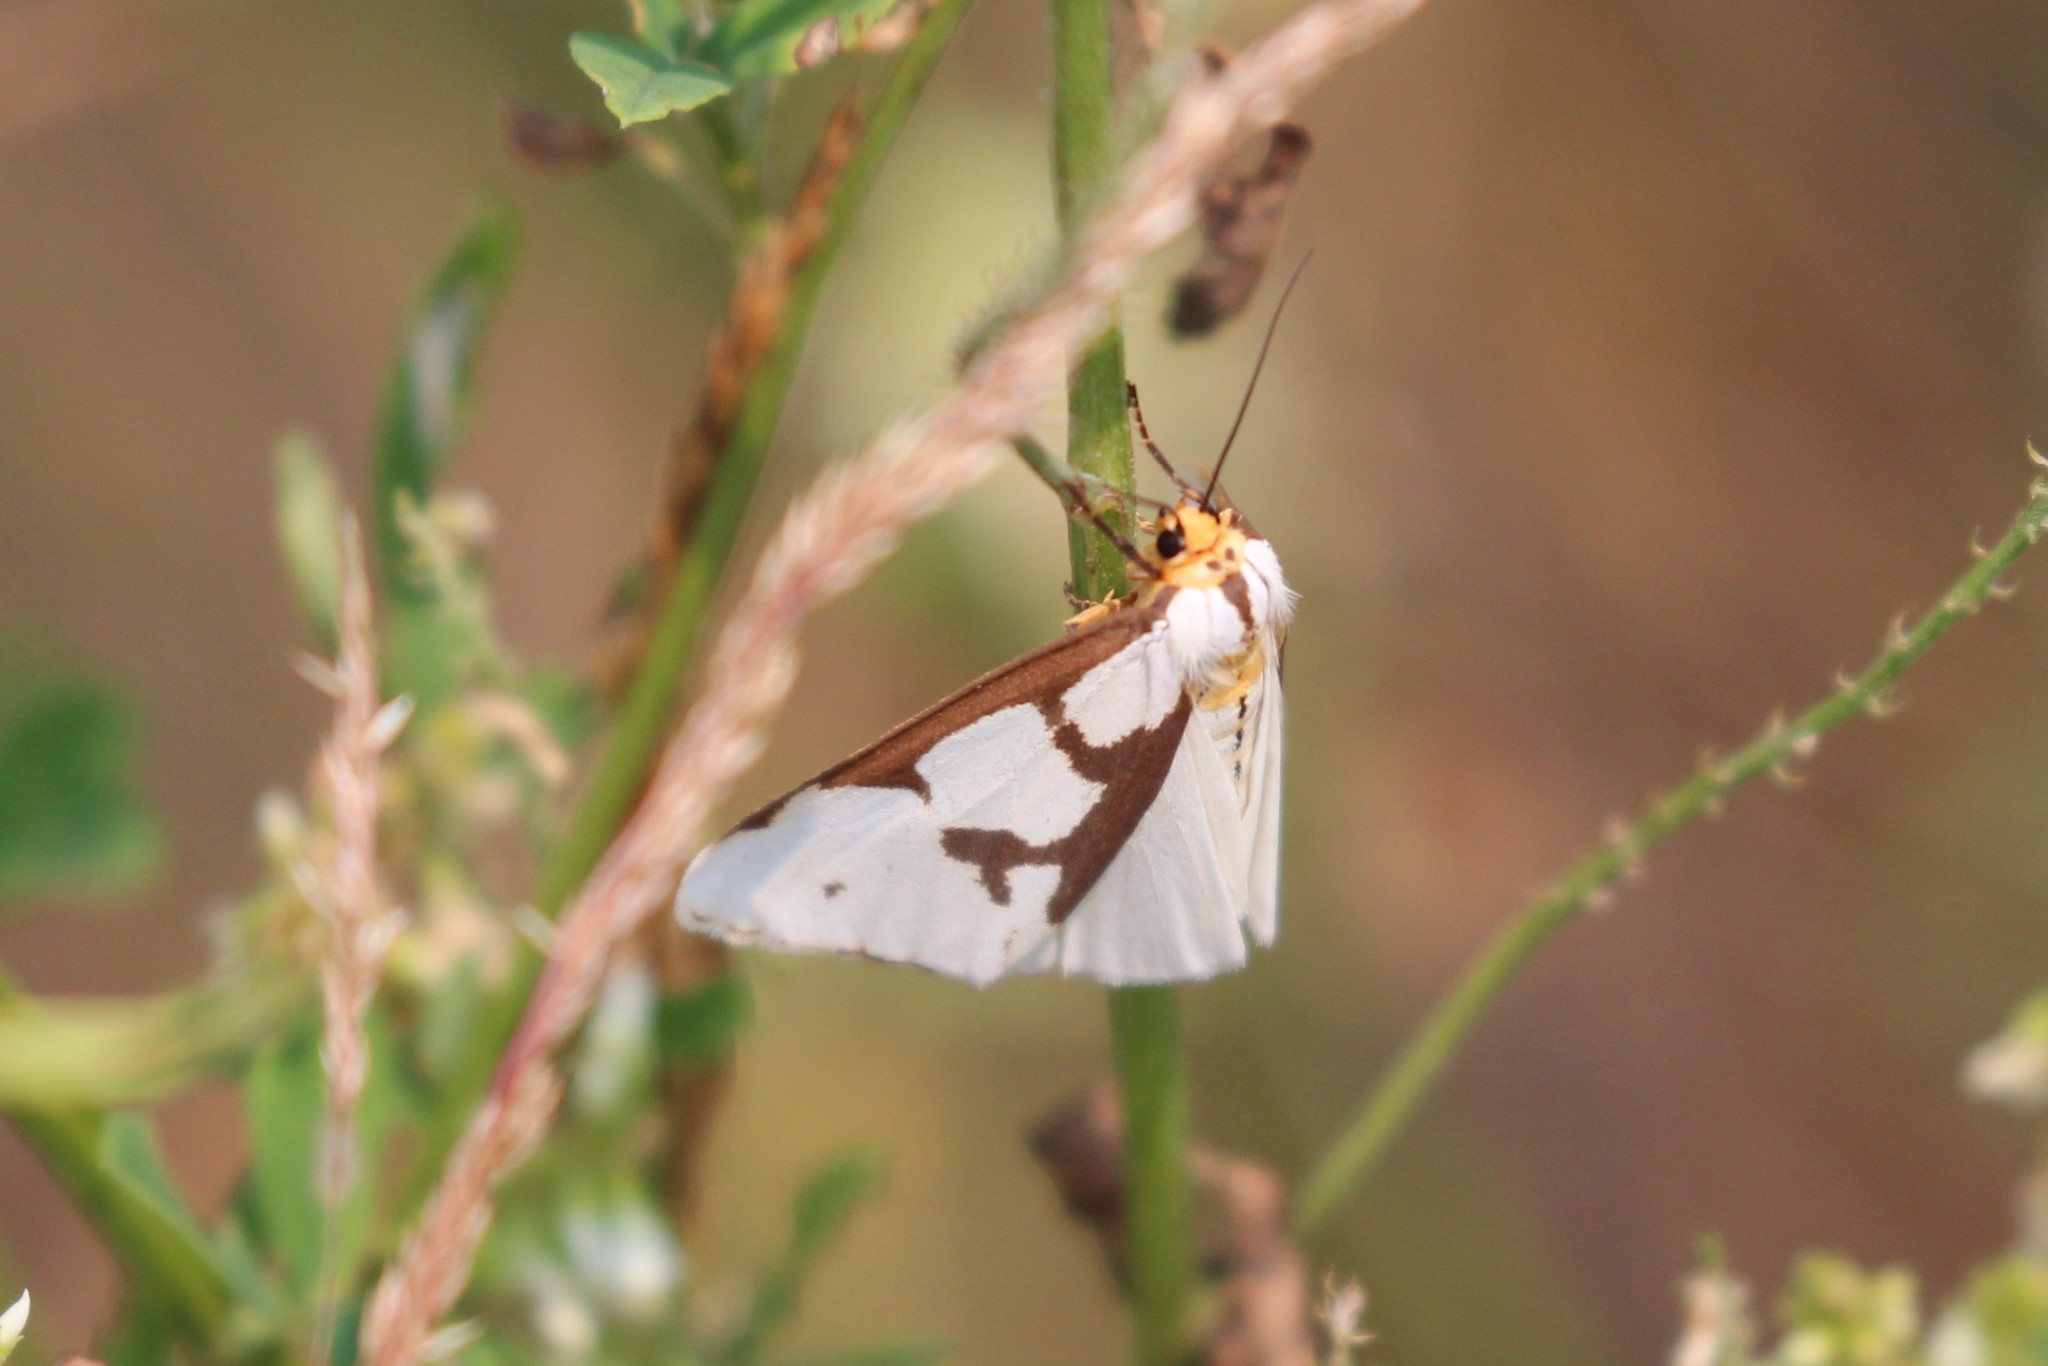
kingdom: Animalia
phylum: Arthropoda
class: Insecta
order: Lepidoptera
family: Erebidae
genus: Haploa
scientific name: Haploa lecontei
